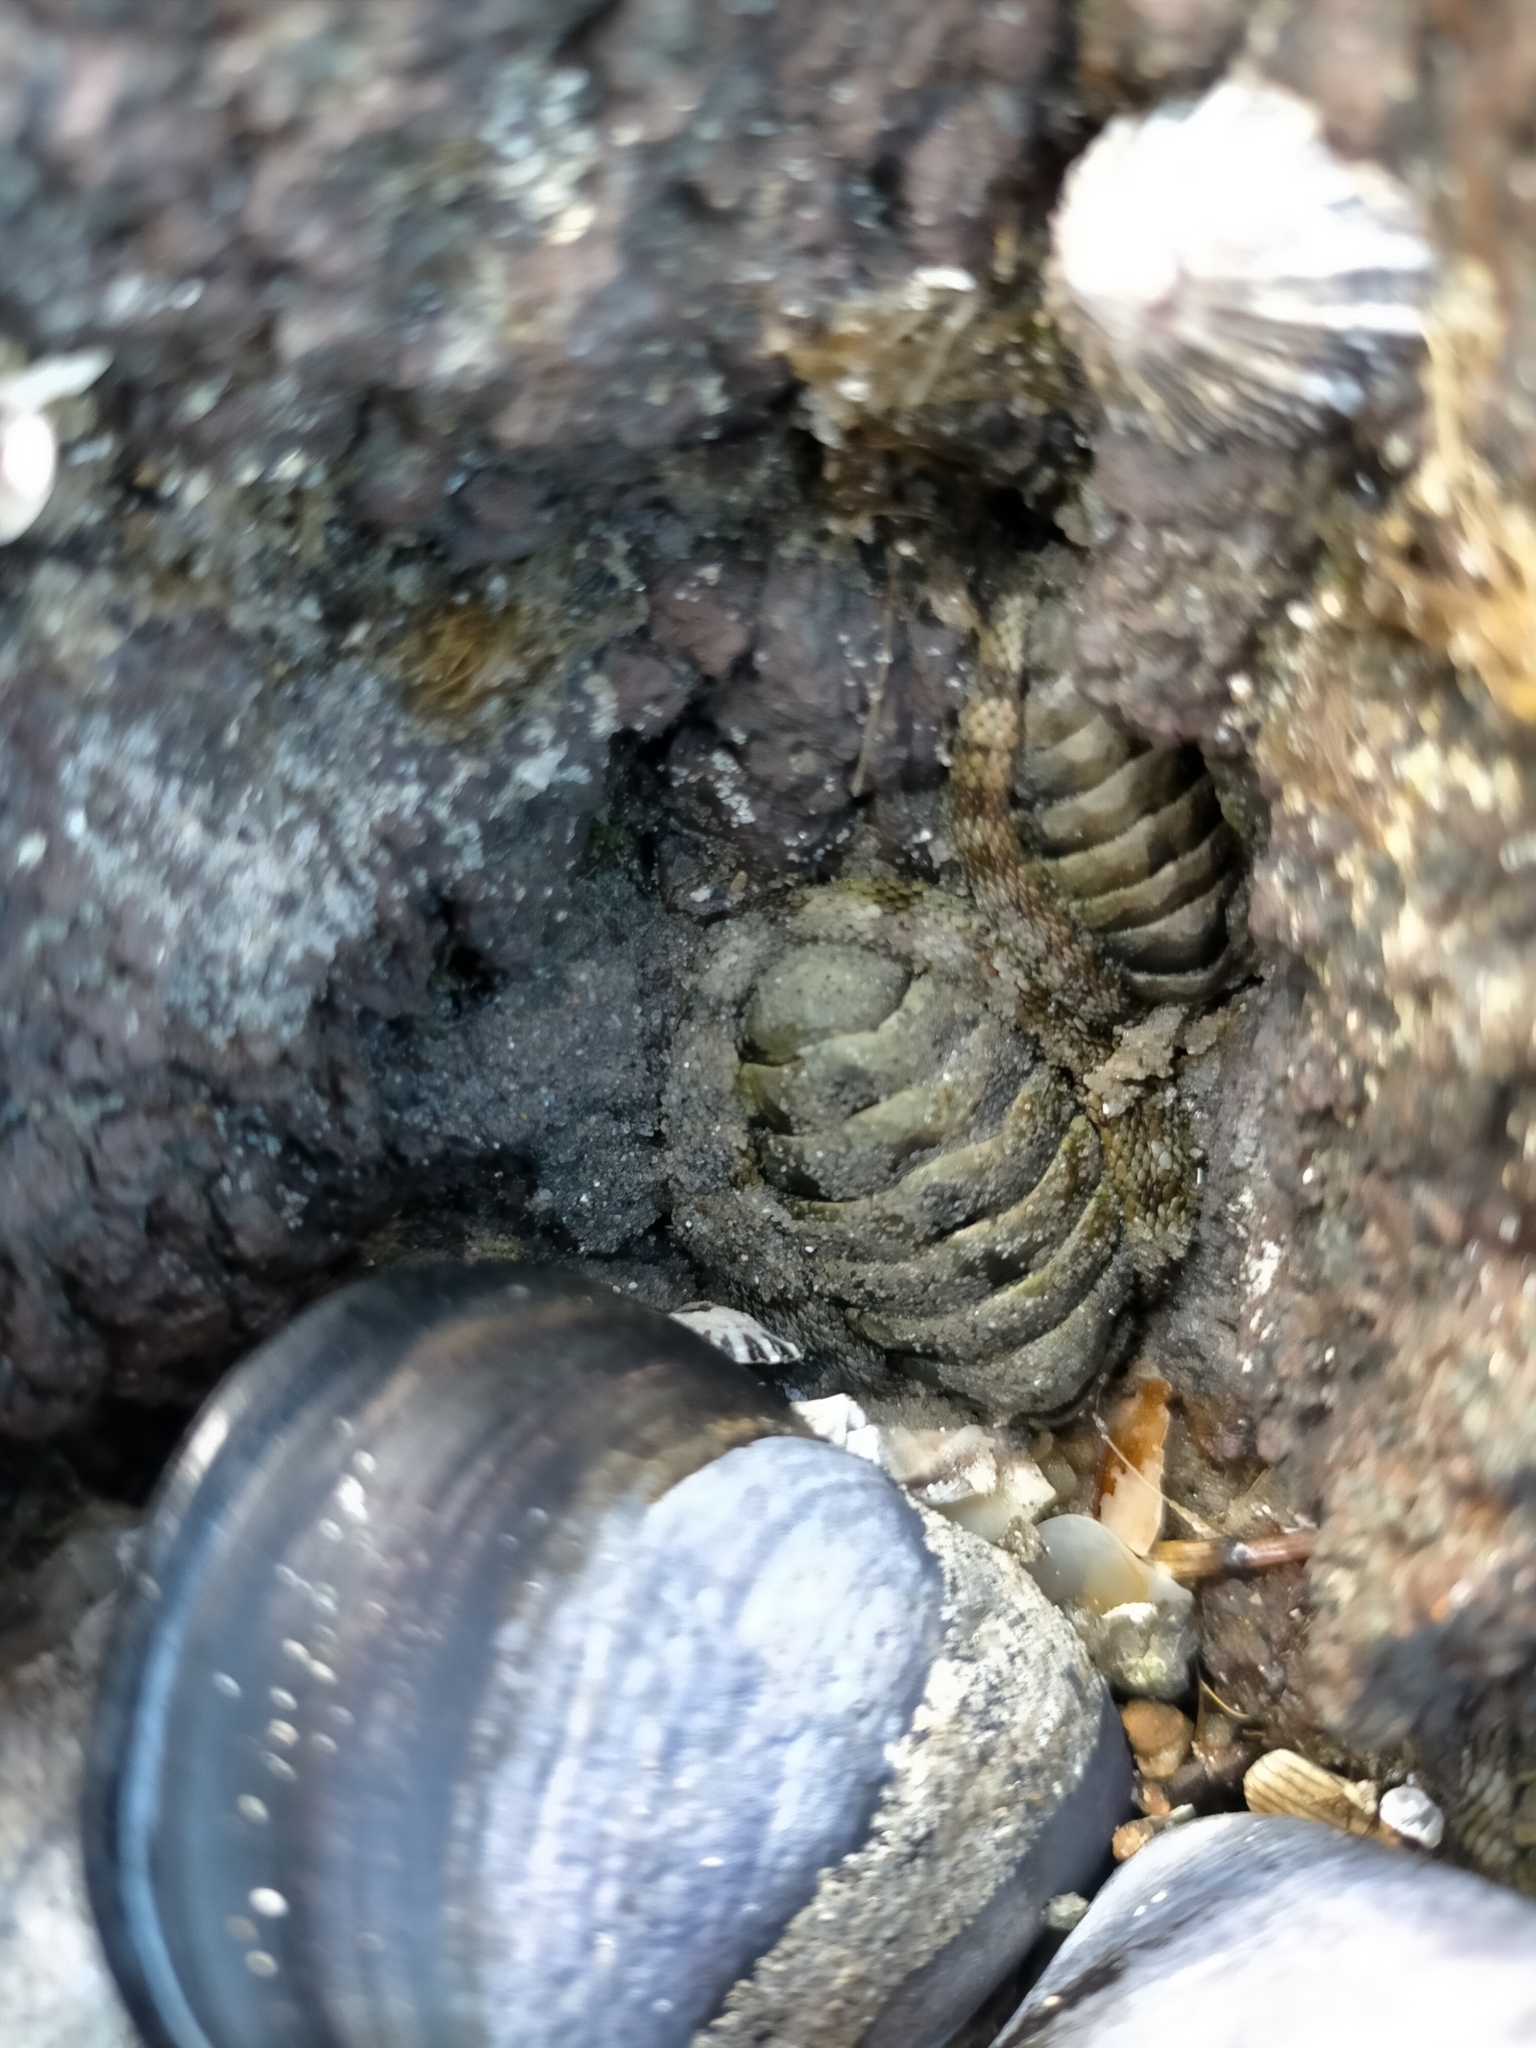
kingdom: Animalia
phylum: Mollusca
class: Polyplacophora
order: Chitonida
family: Chitonidae
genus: Sypharochiton
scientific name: Sypharochiton pelliserpentis
